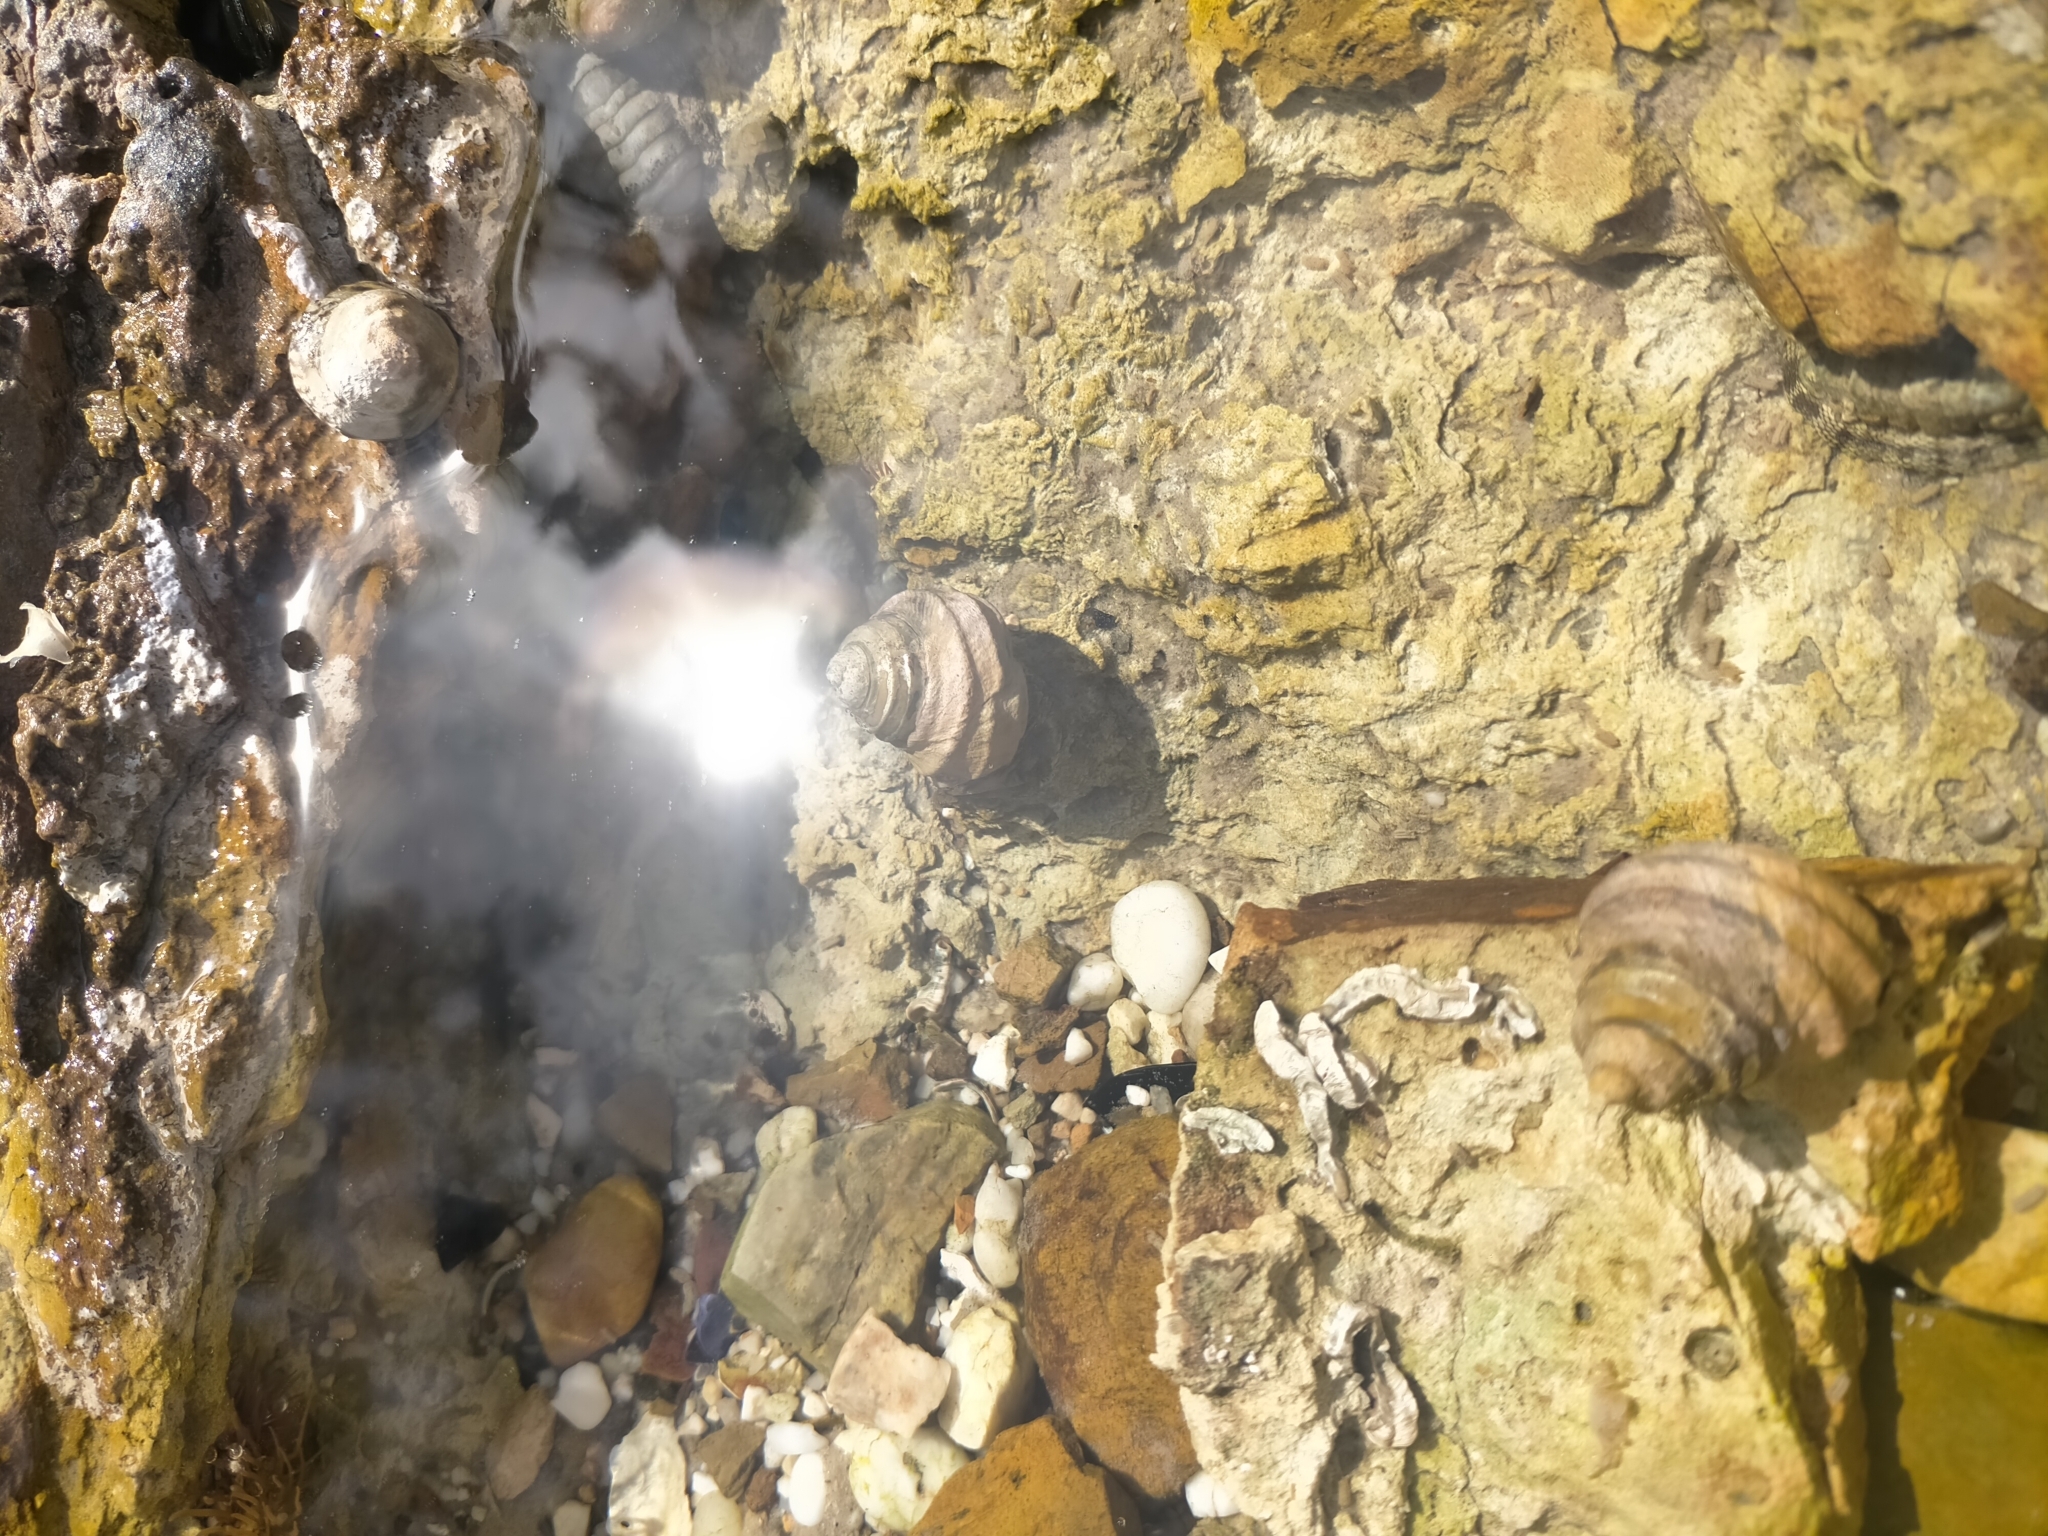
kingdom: Animalia
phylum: Mollusca
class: Gastropoda
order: Trochida
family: Trochidae
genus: Austrocochlea
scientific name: Austrocochlea constricta
